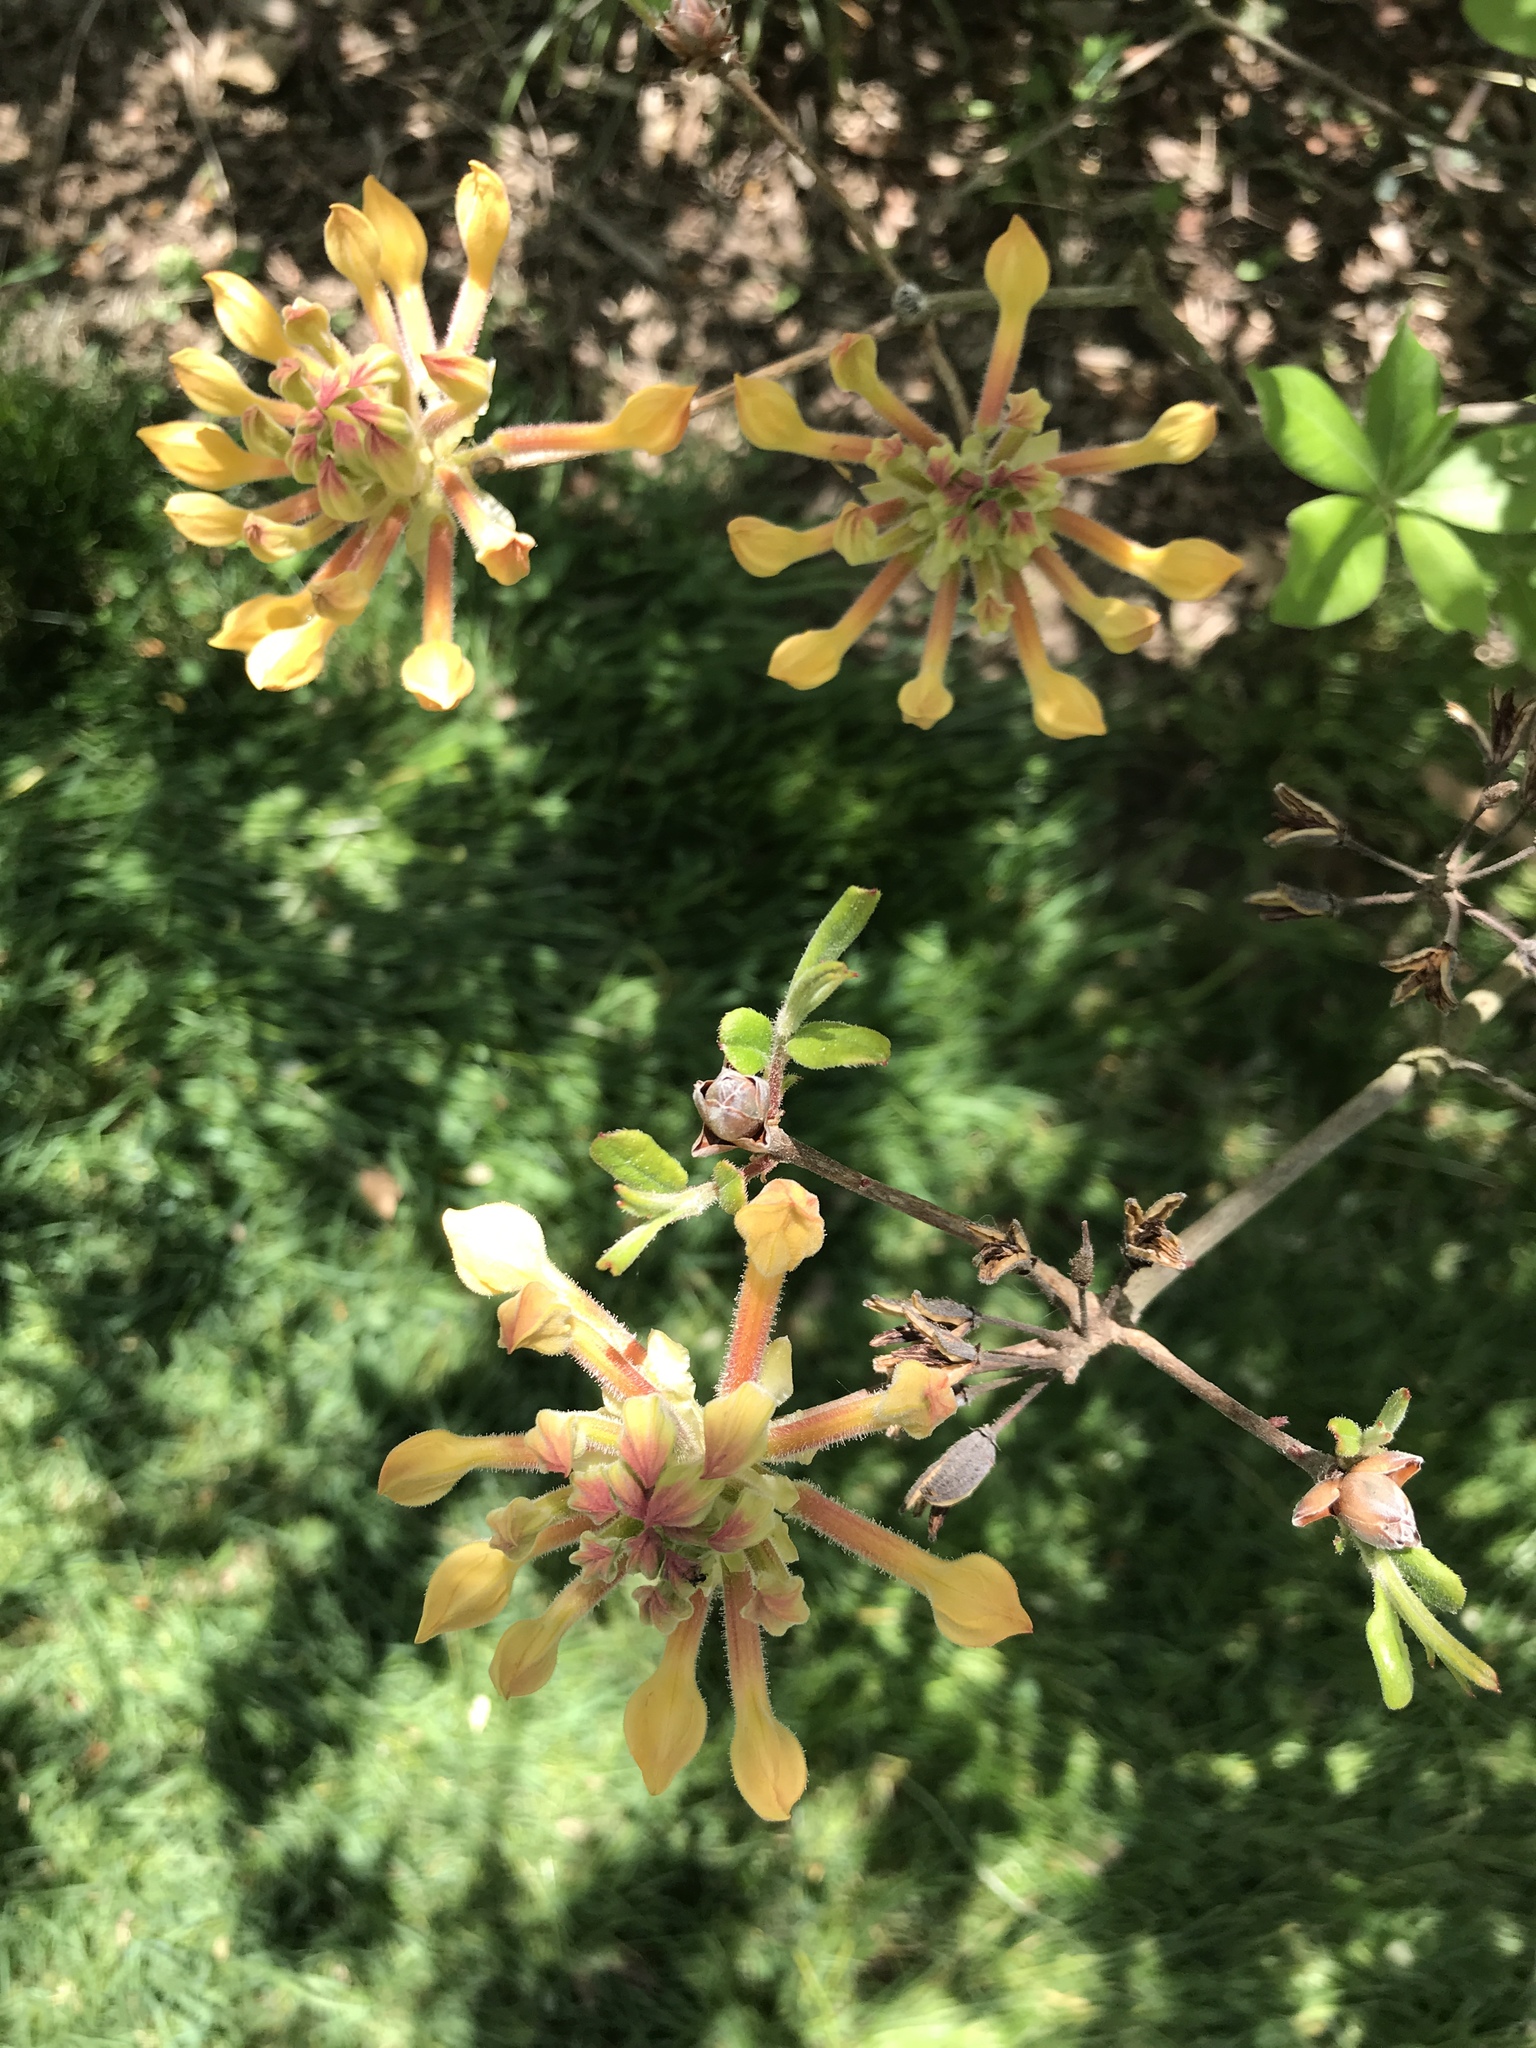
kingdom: Plantae
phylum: Tracheophyta
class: Magnoliopsida
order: Ericales
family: Ericaceae
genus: Rhododendron
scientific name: Rhododendron calendulaceum
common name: Flame azalea
